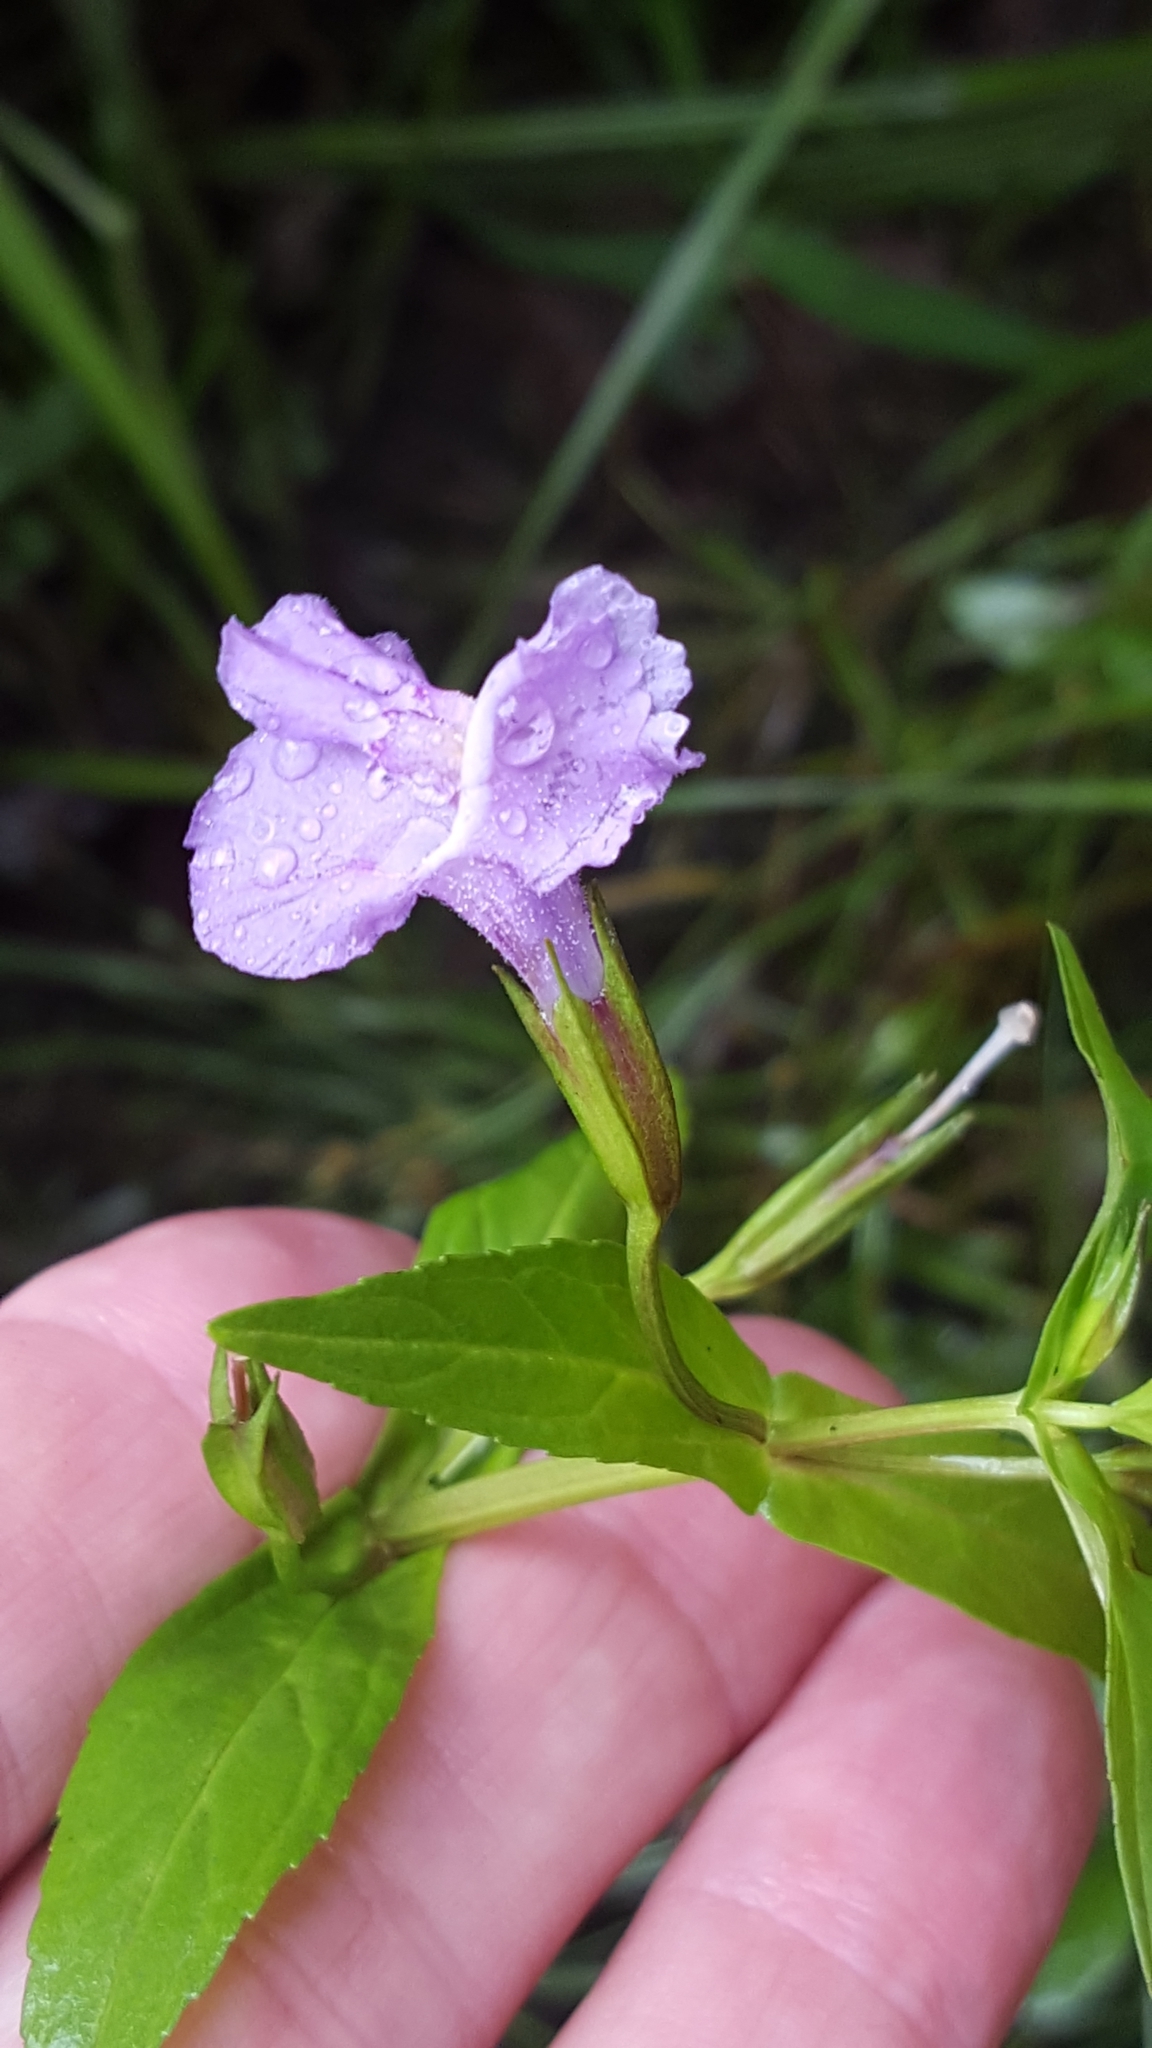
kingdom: Plantae
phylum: Tracheophyta
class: Magnoliopsida
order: Lamiales
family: Phrymaceae
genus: Mimulus
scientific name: Mimulus ringens
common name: Allegheny monkeyflower
